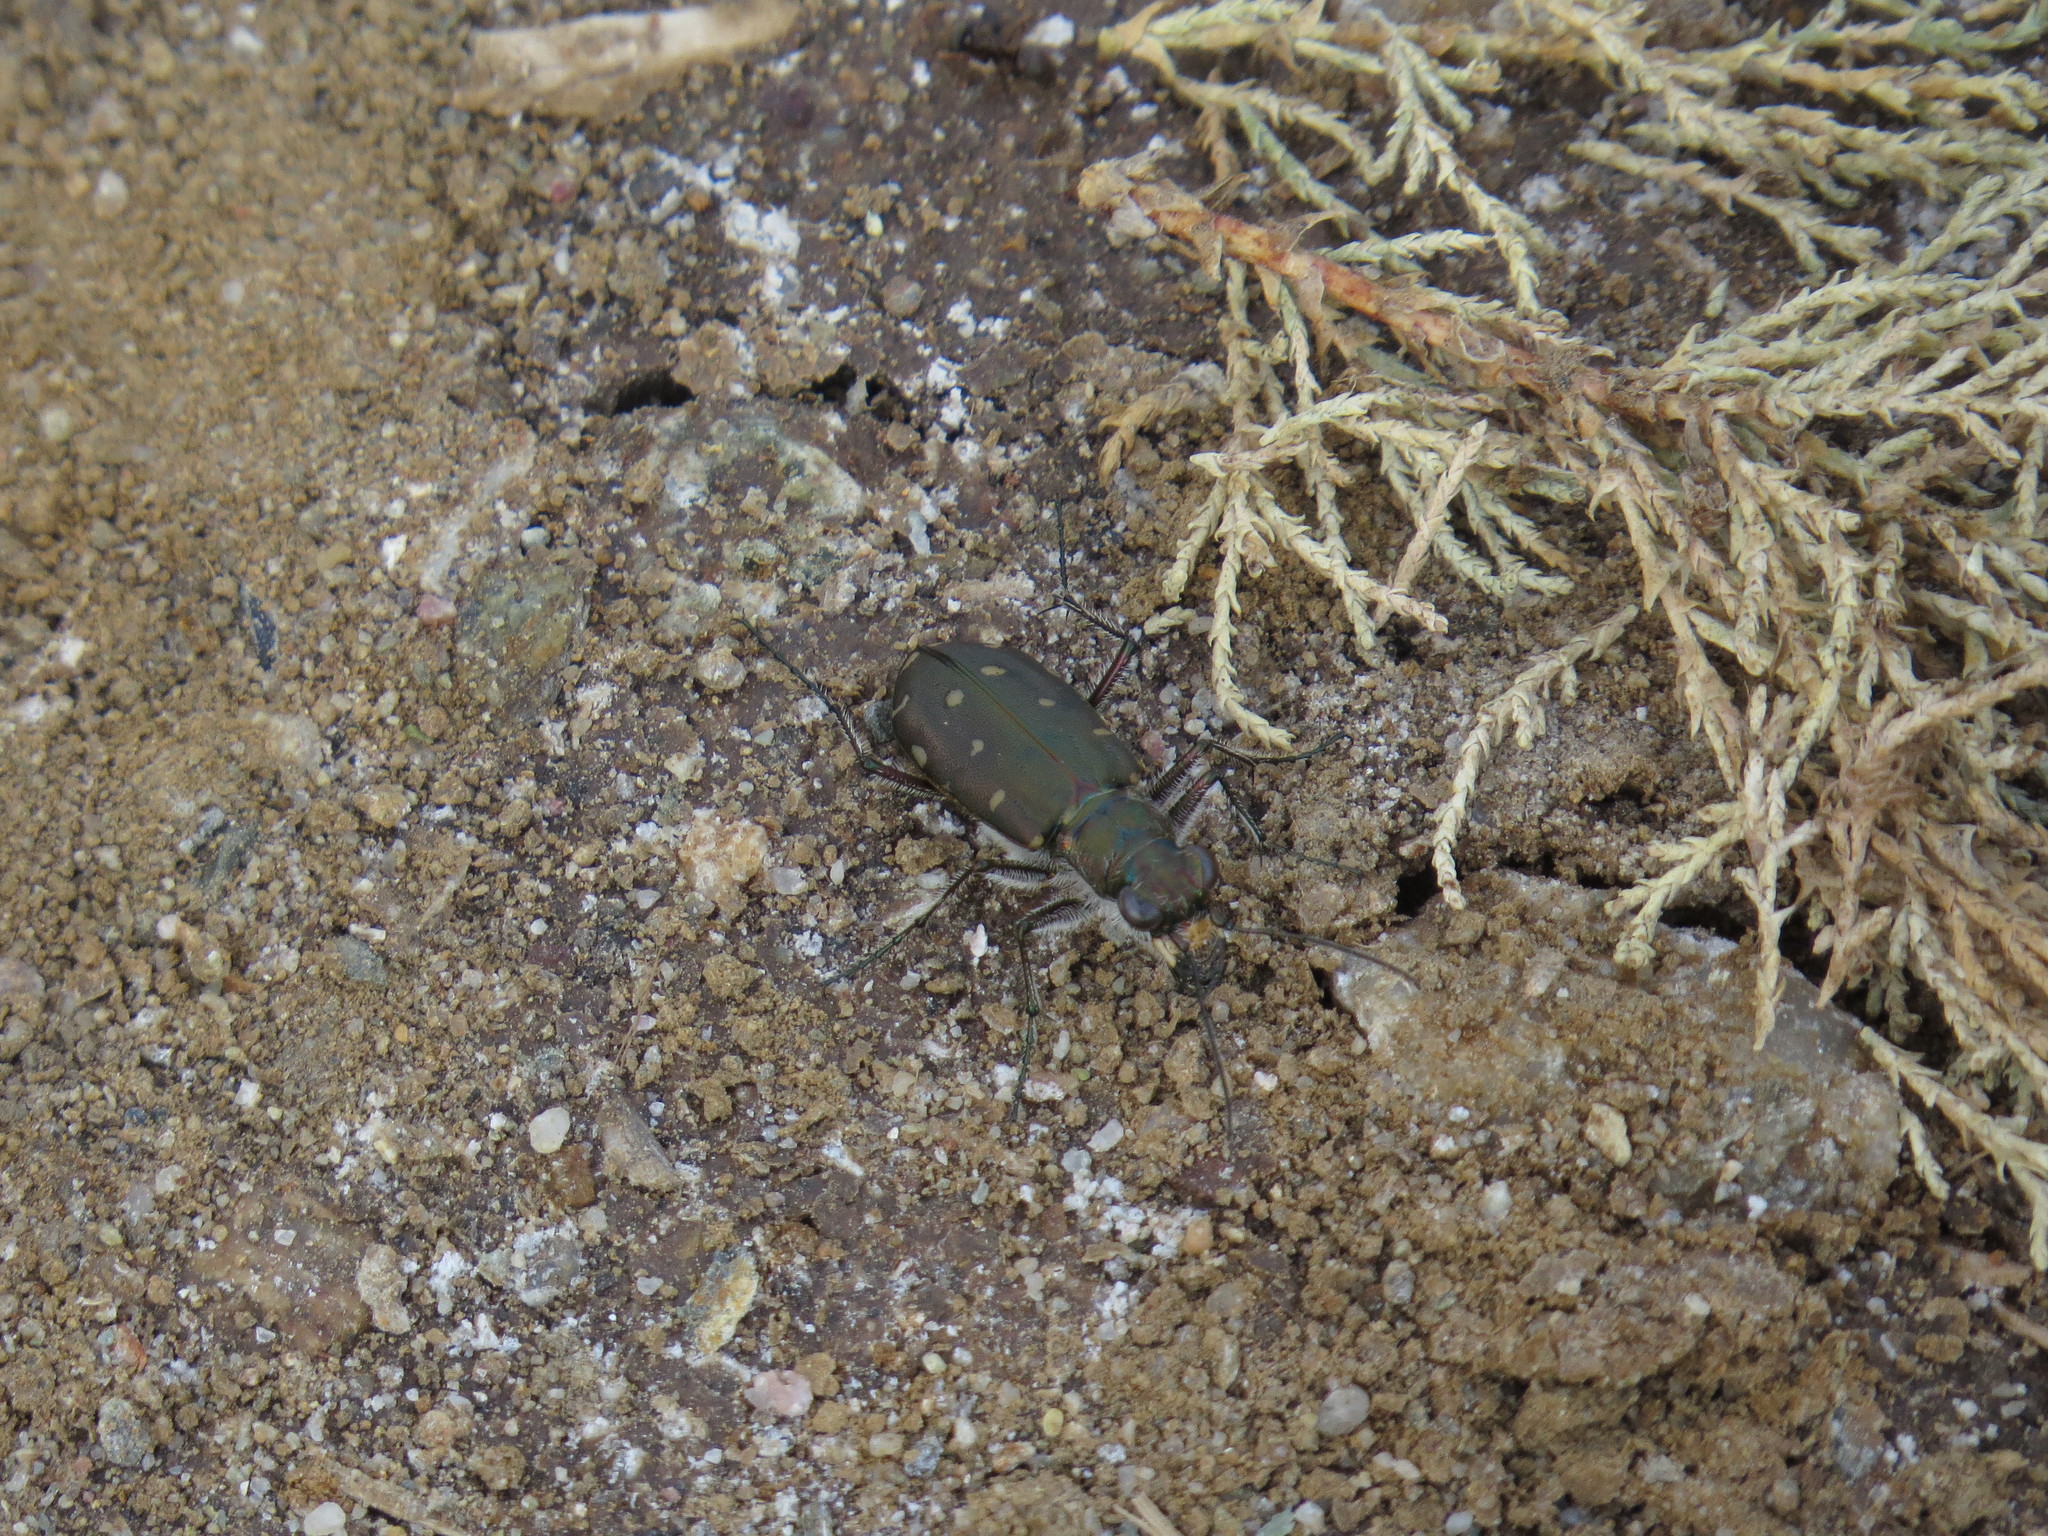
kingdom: Animalia
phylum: Arthropoda
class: Insecta
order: Coleoptera
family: Carabidae
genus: Cicindela
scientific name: Cicindela littoralis
